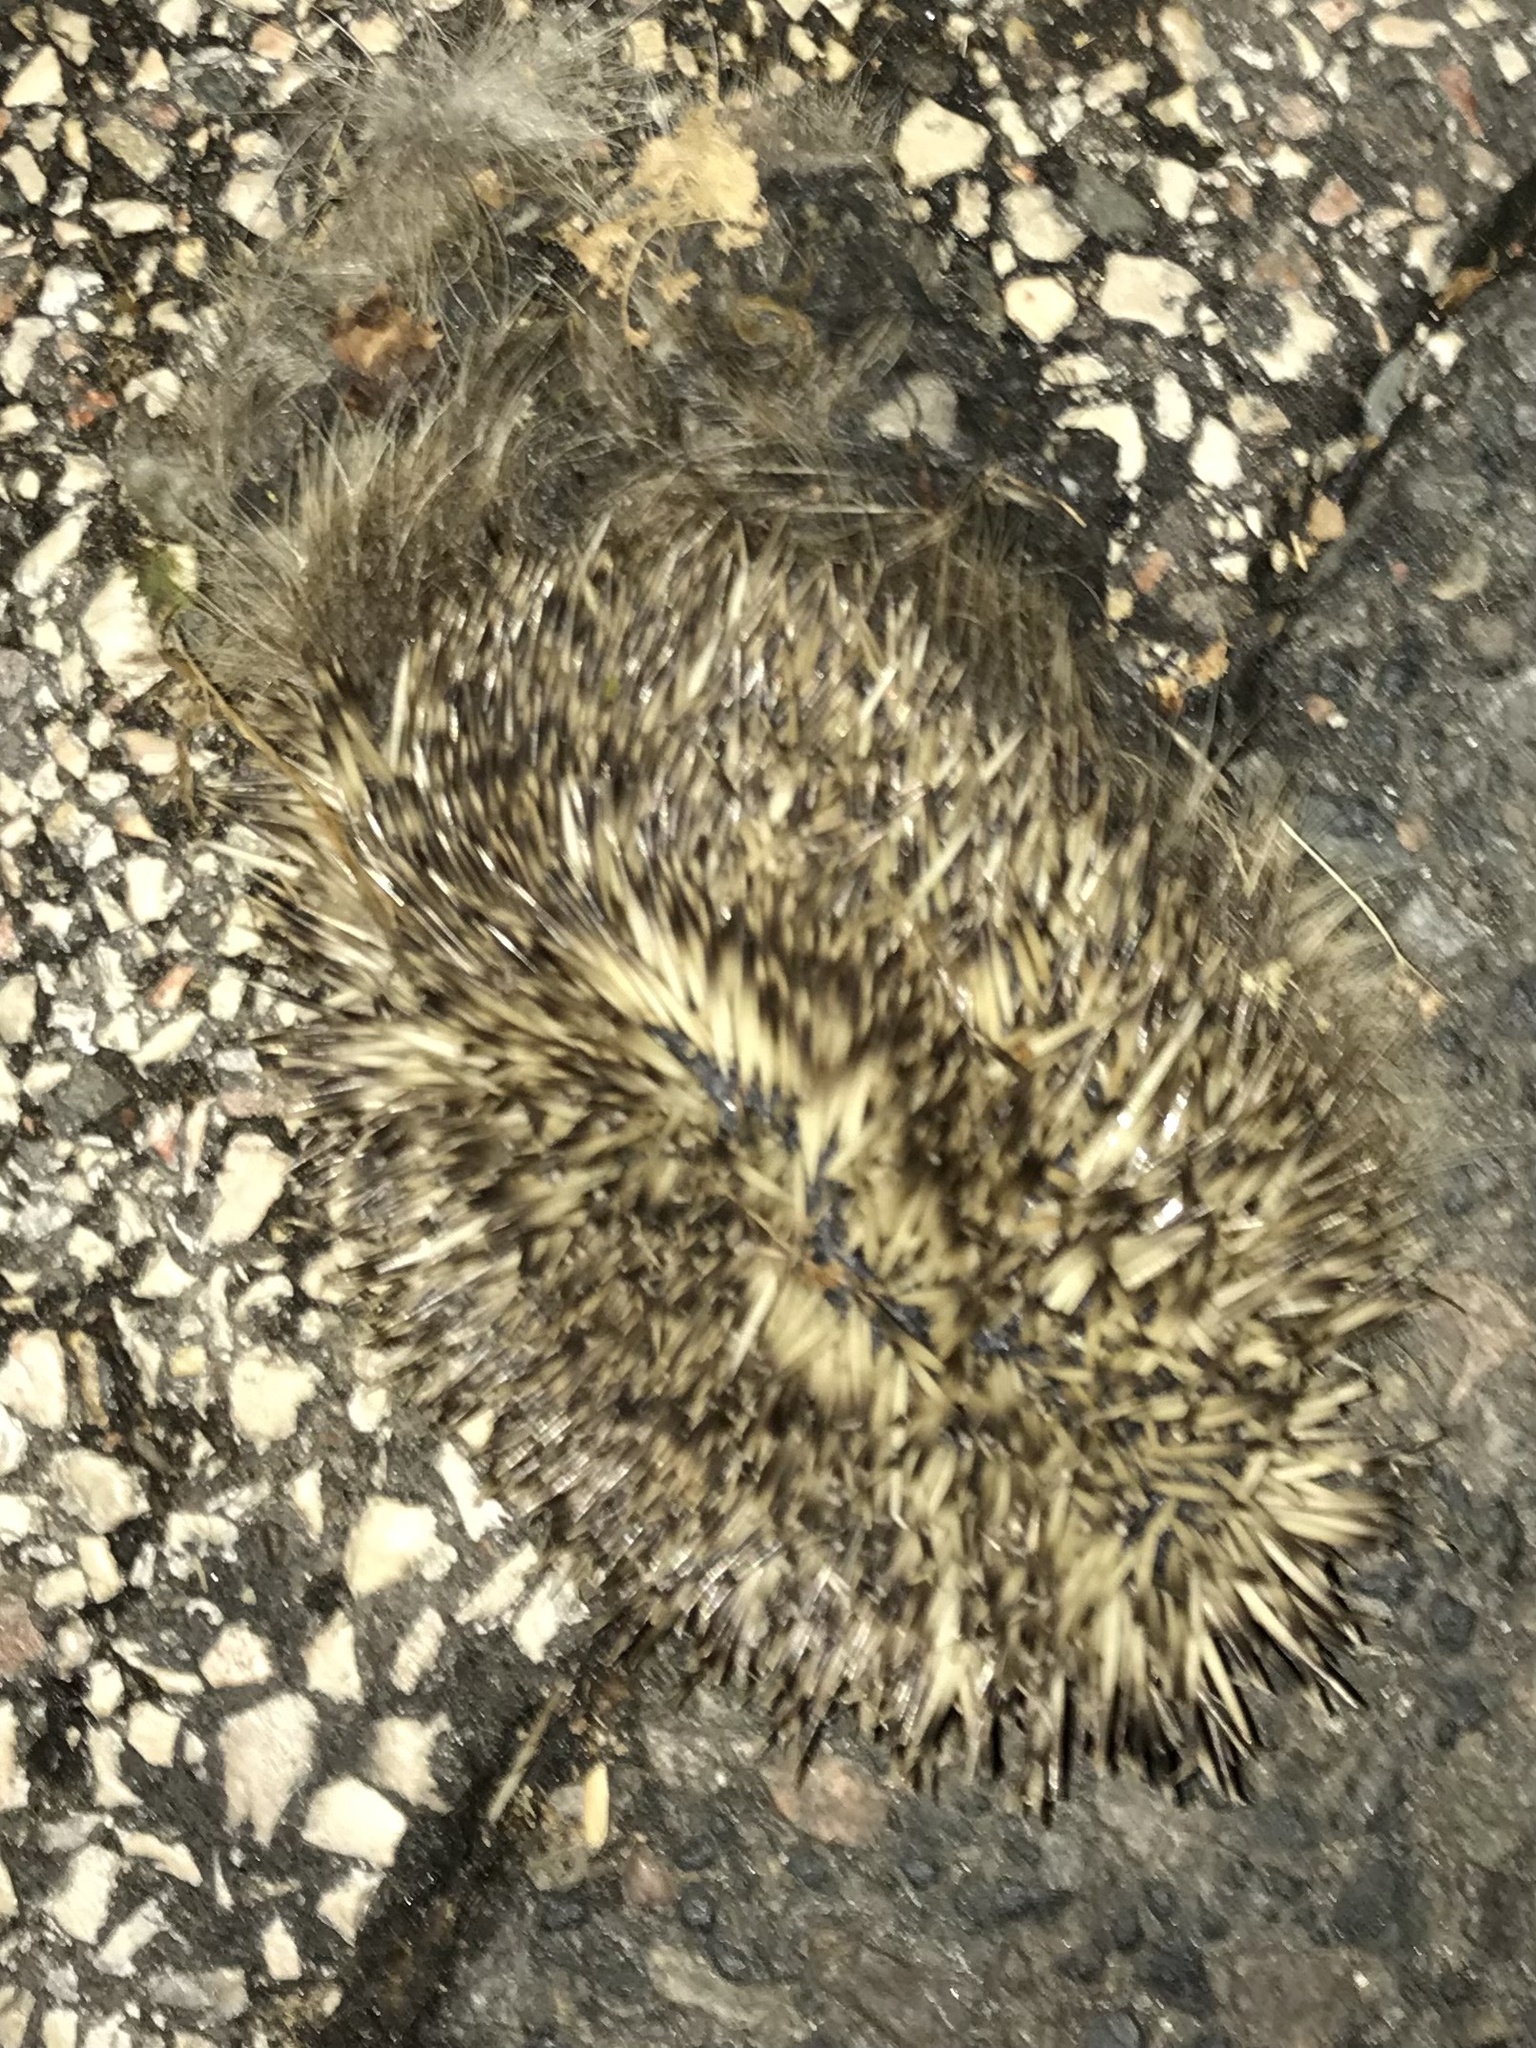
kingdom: Animalia
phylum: Chordata
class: Mammalia
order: Erinaceomorpha
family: Erinaceidae
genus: Erinaceus
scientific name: Erinaceus europaeus
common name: West european hedgehog
